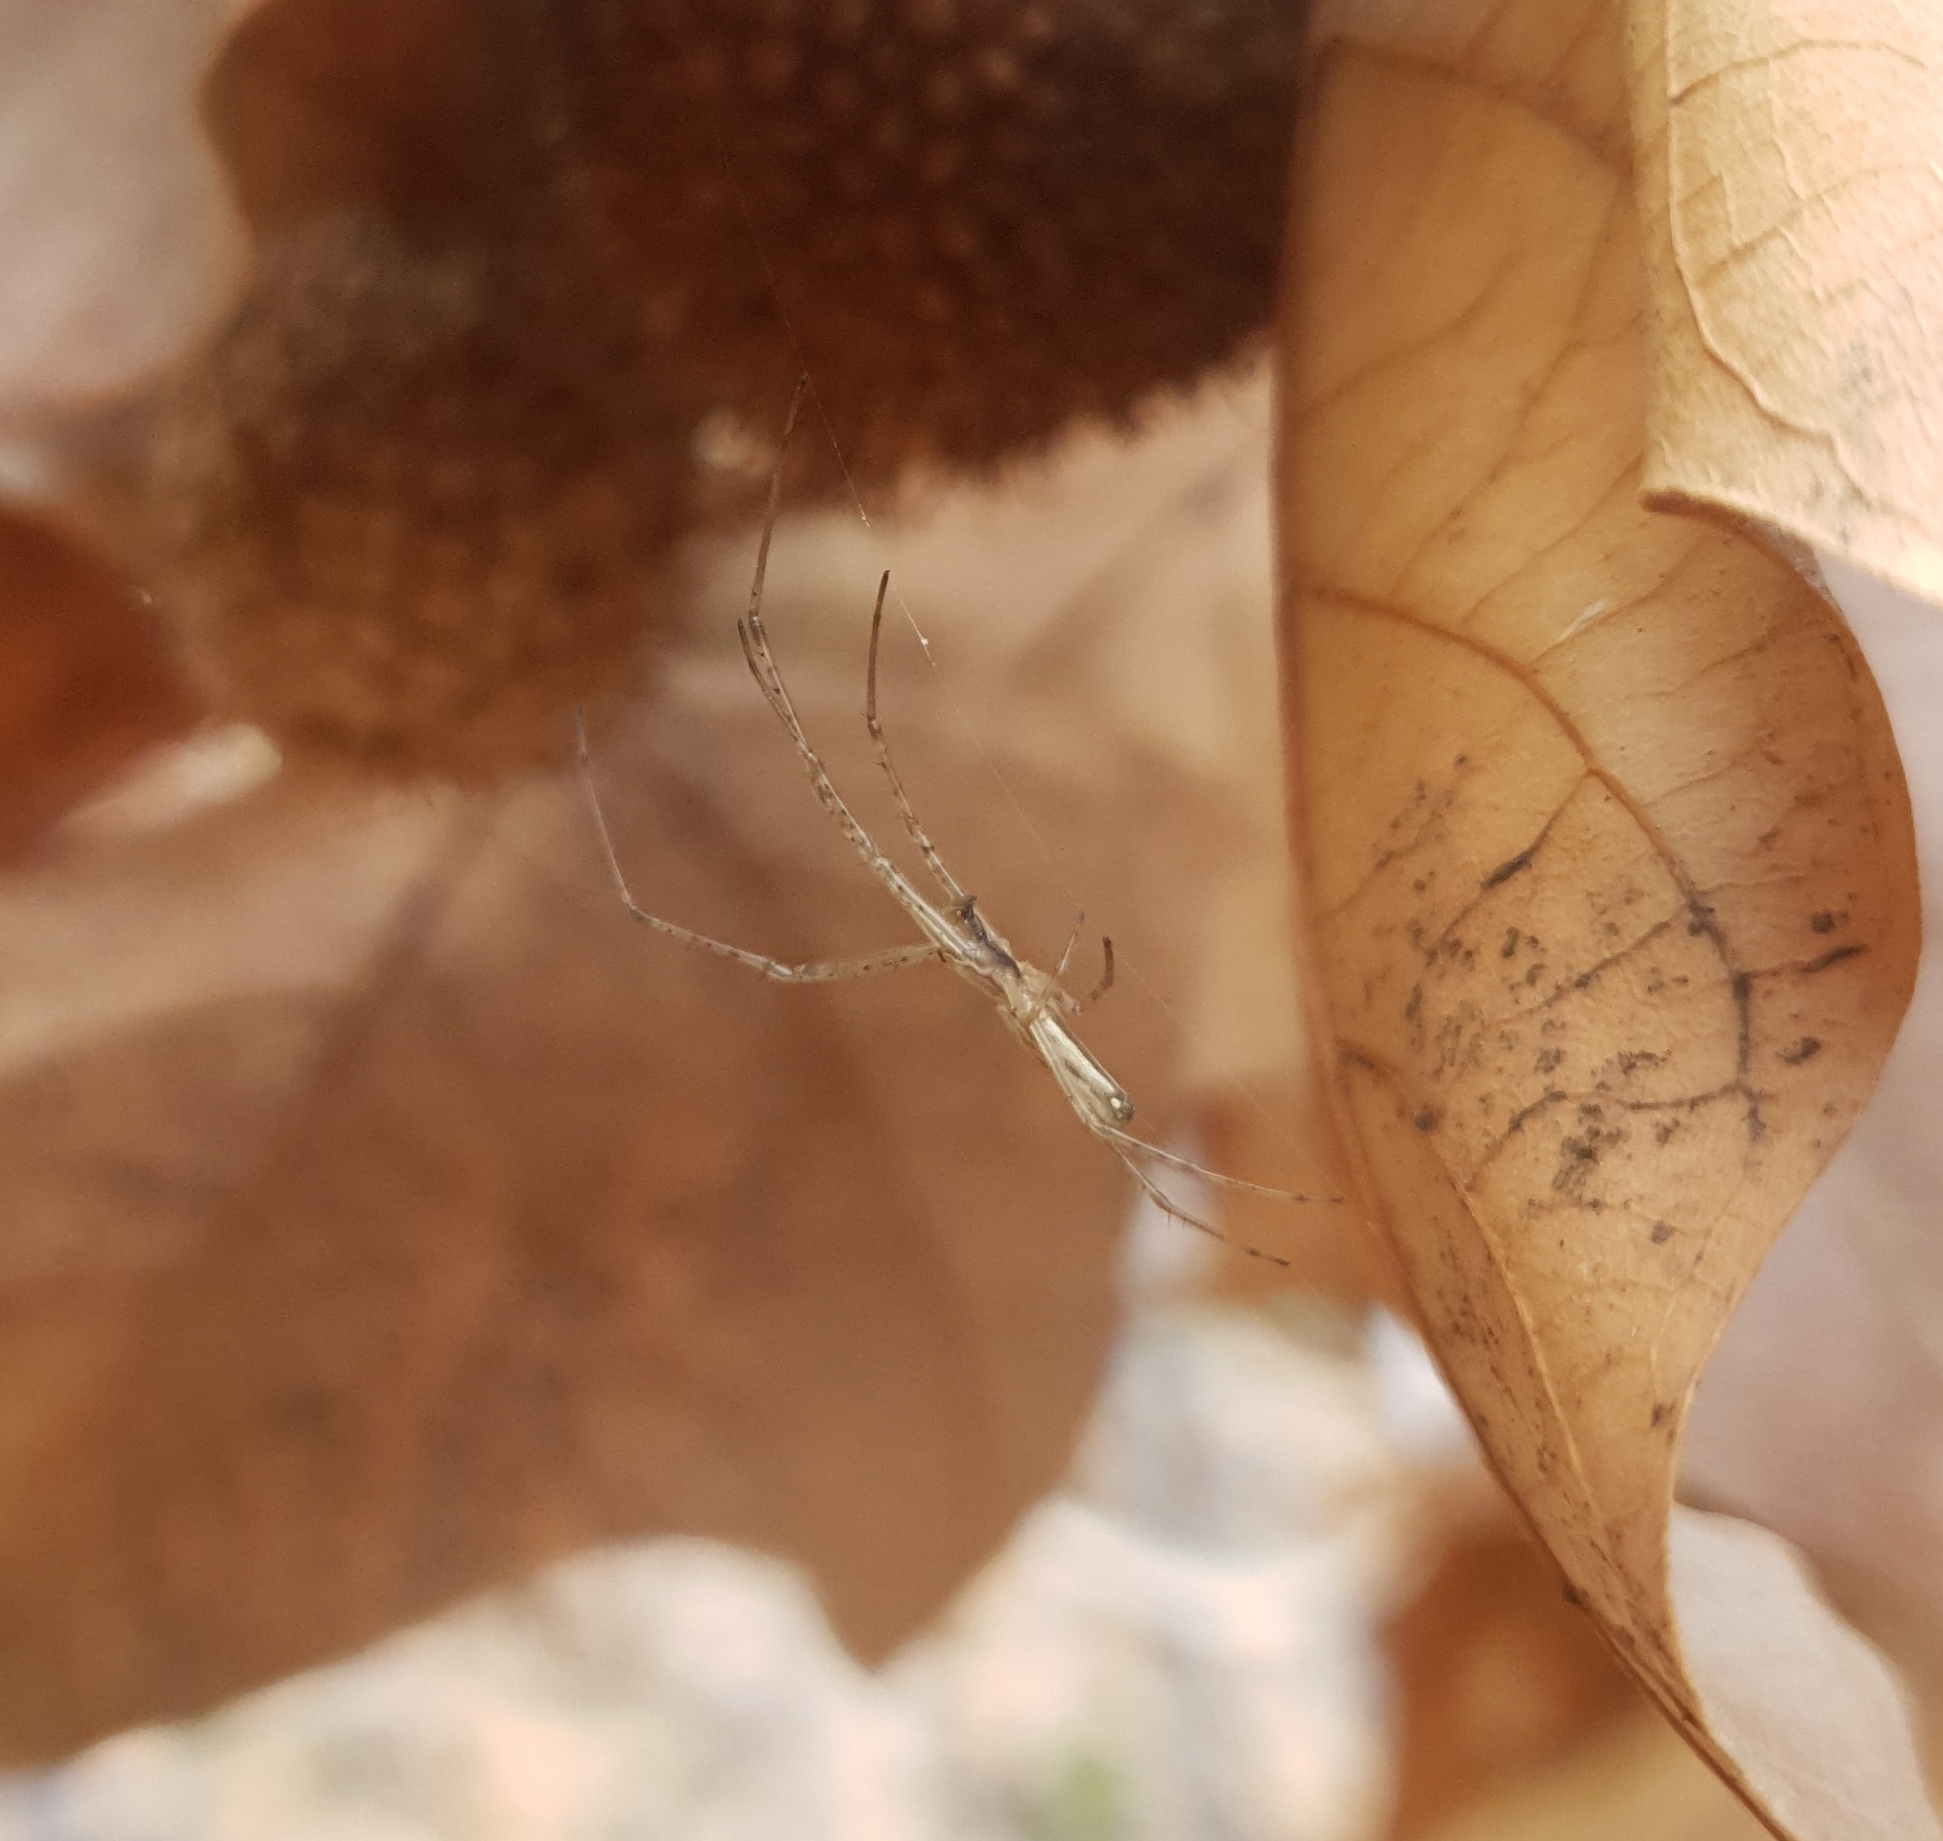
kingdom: Animalia
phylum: Arthropoda
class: Arachnida
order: Araneae
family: Tetragnathidae
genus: Tetragnatha
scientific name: Tetragnatha
